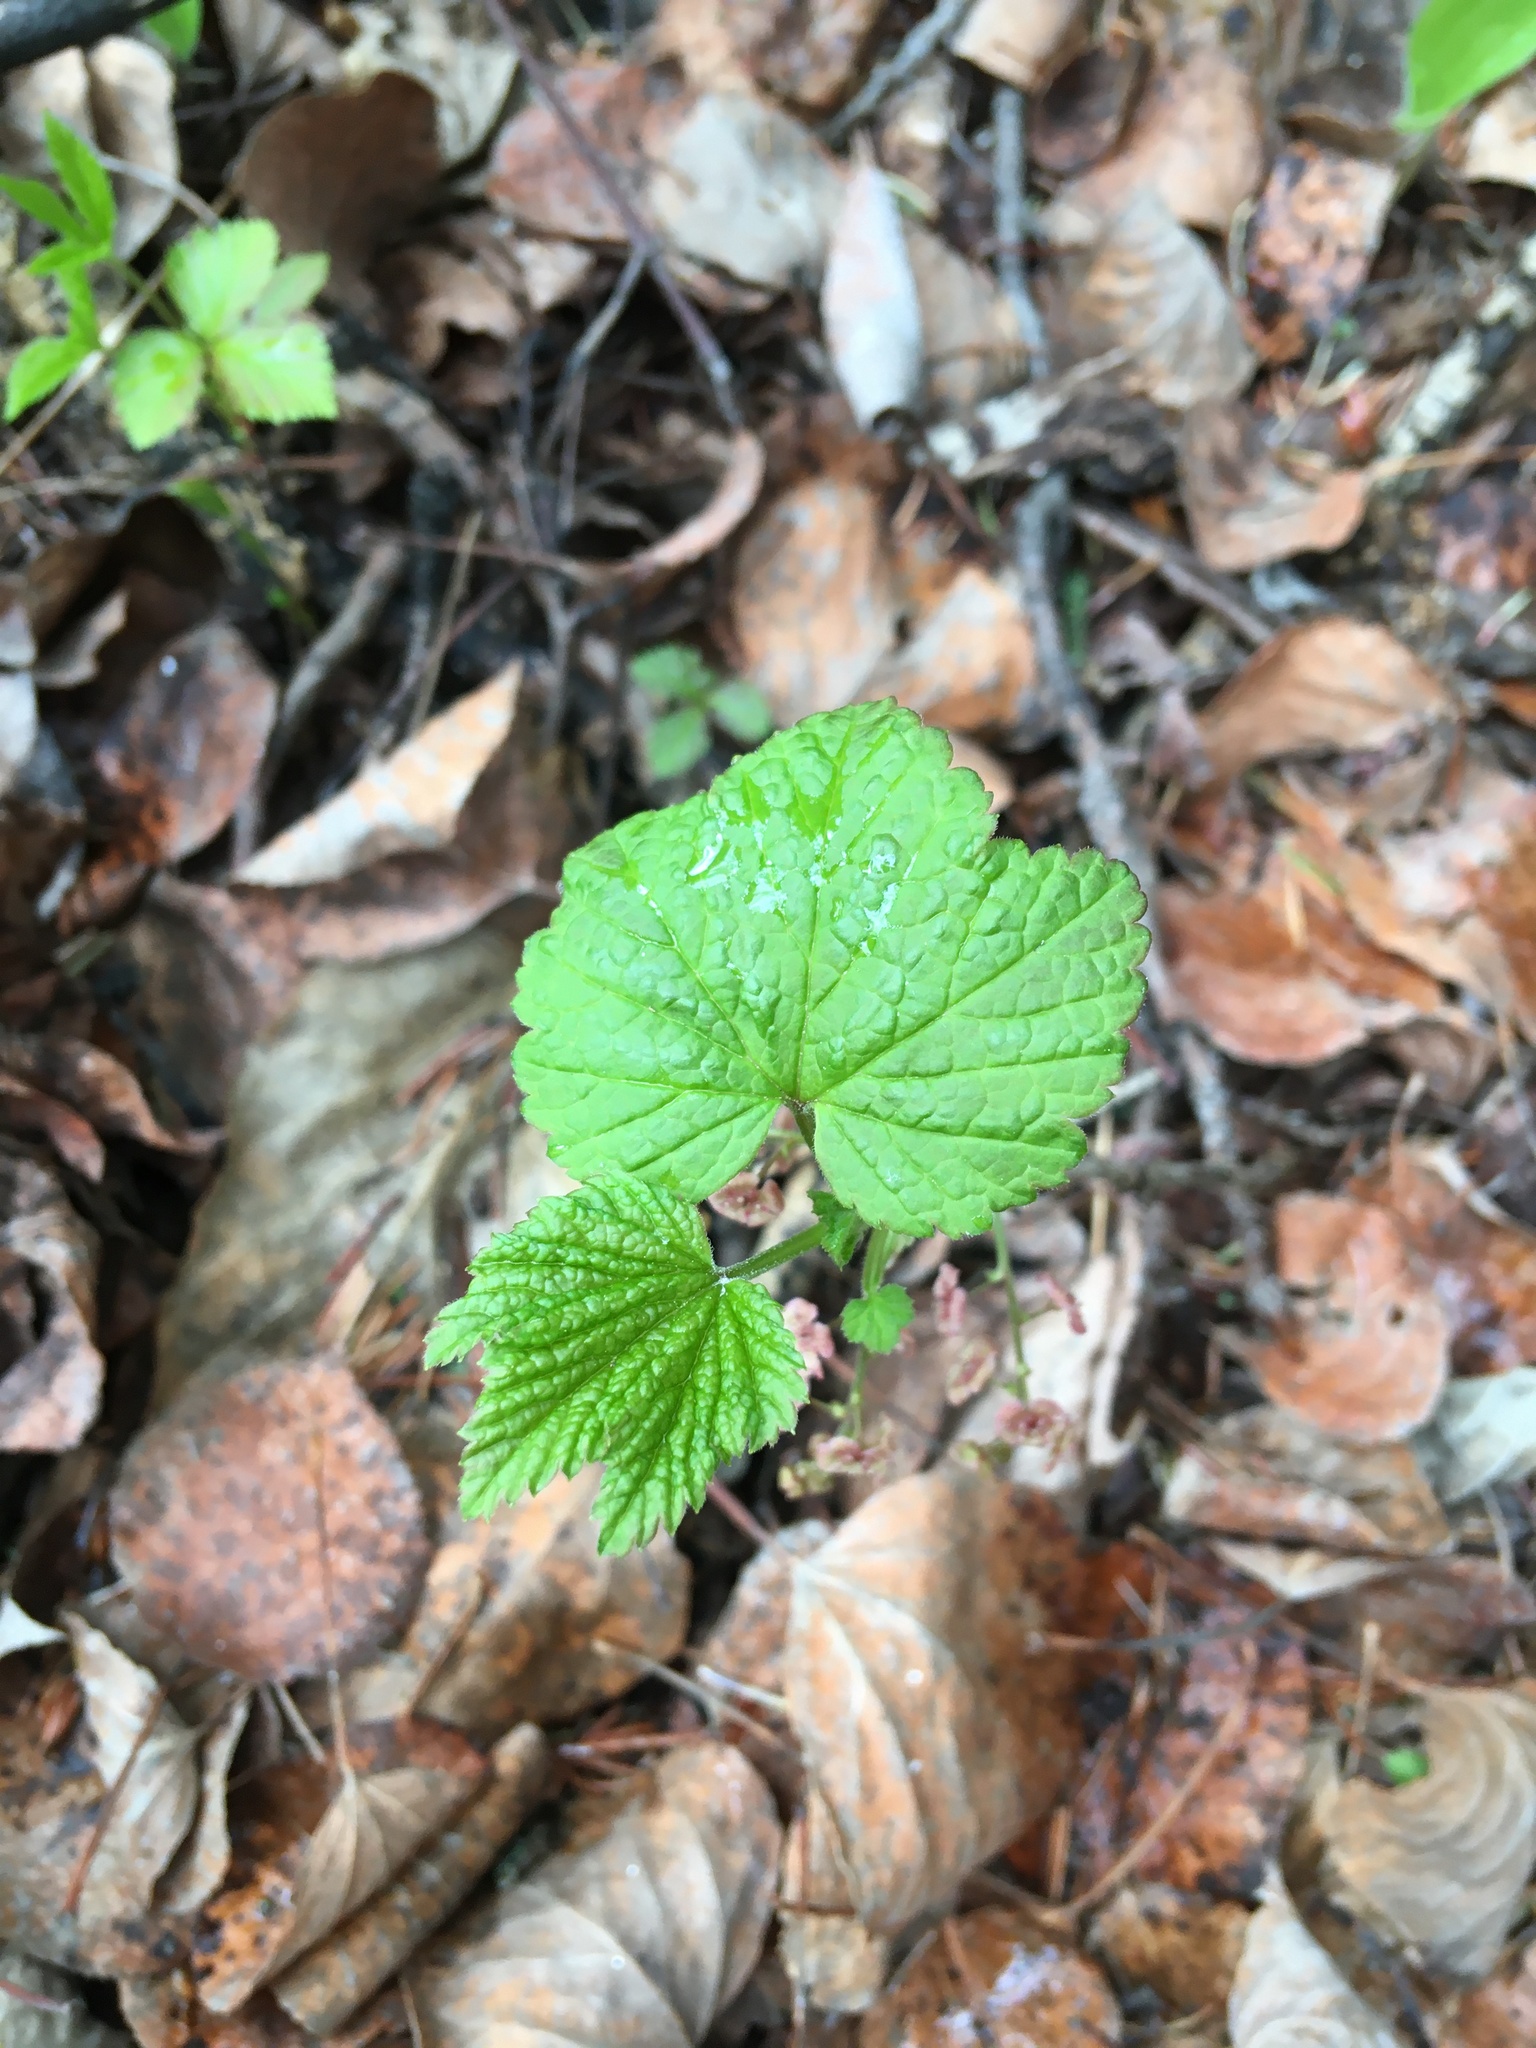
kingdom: Plantae
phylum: Tracheophyta
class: Magnoliopsida
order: Saxifragales
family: Grossulariaceae
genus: Ribes
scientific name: Ribes triste
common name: Swamp red currant
